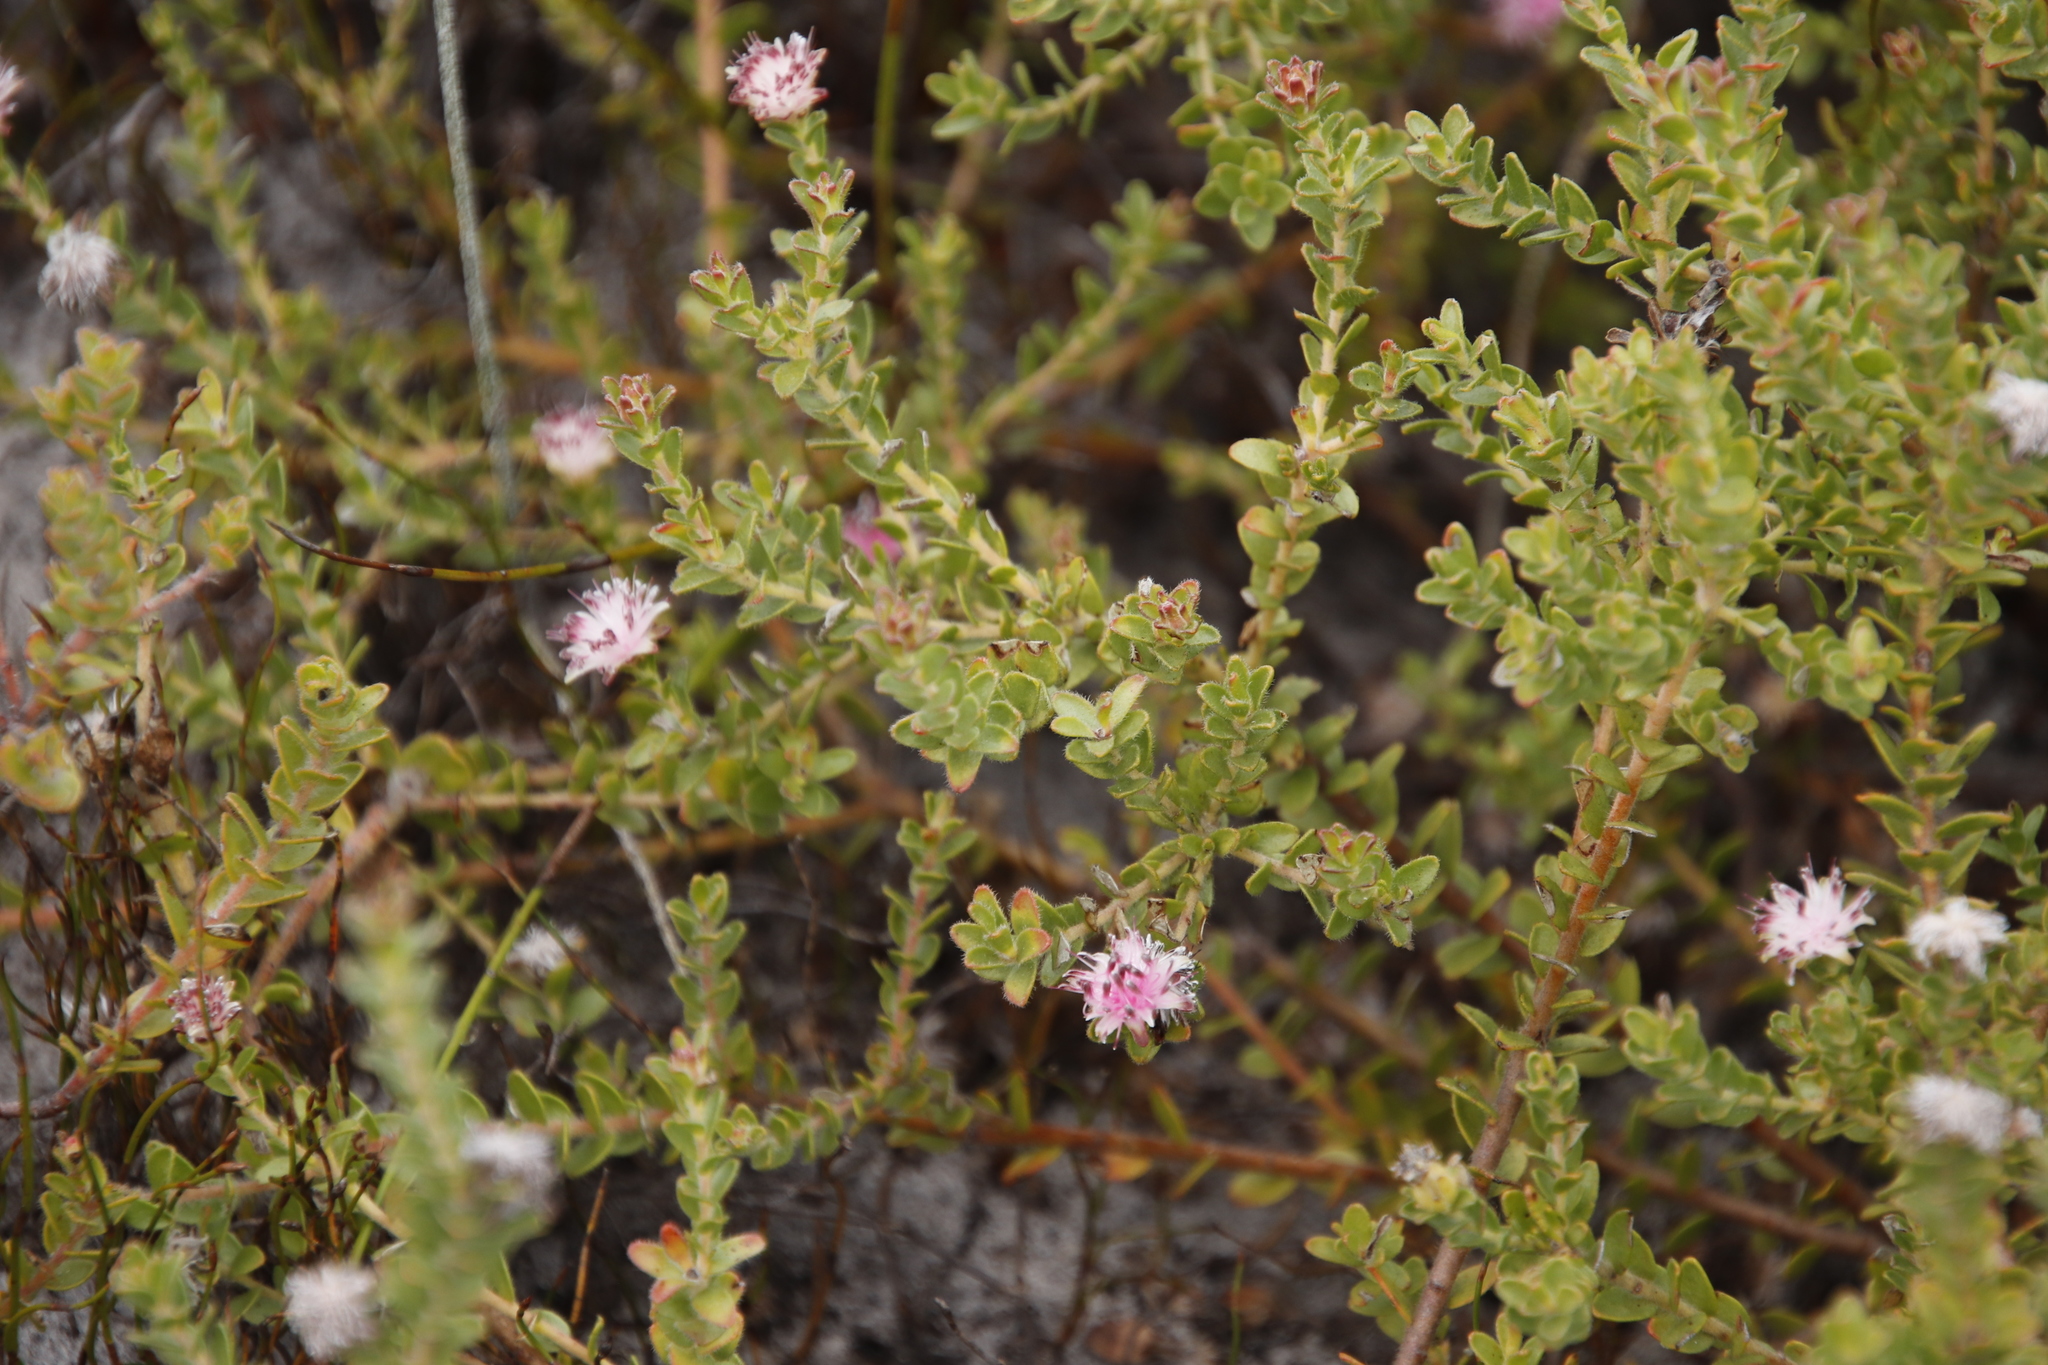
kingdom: Plantae
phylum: Tracheophyta
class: Magnoliopsida
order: Proteales
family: Proteaceae
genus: Diastella
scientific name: Diastella divaricata
